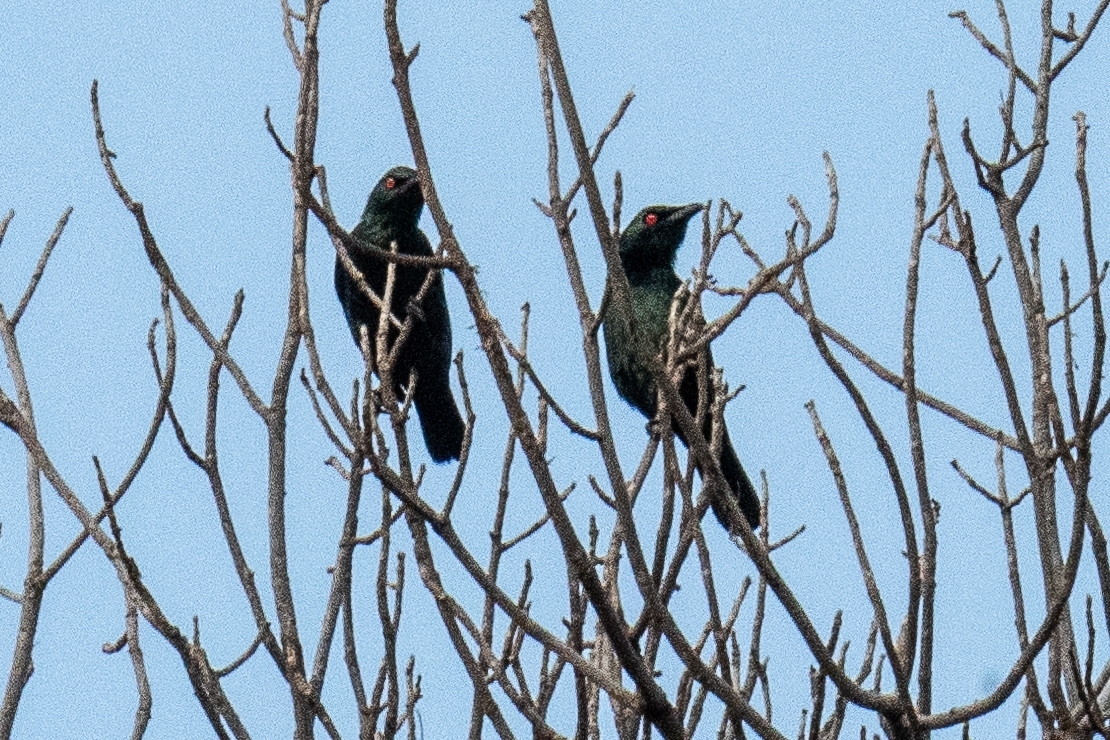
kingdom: Animalia
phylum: Chordata
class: Aves
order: Passeriformes
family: Sturnidae
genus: Aplonis
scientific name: Aplonis panayensis
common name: Asian glossy starling
